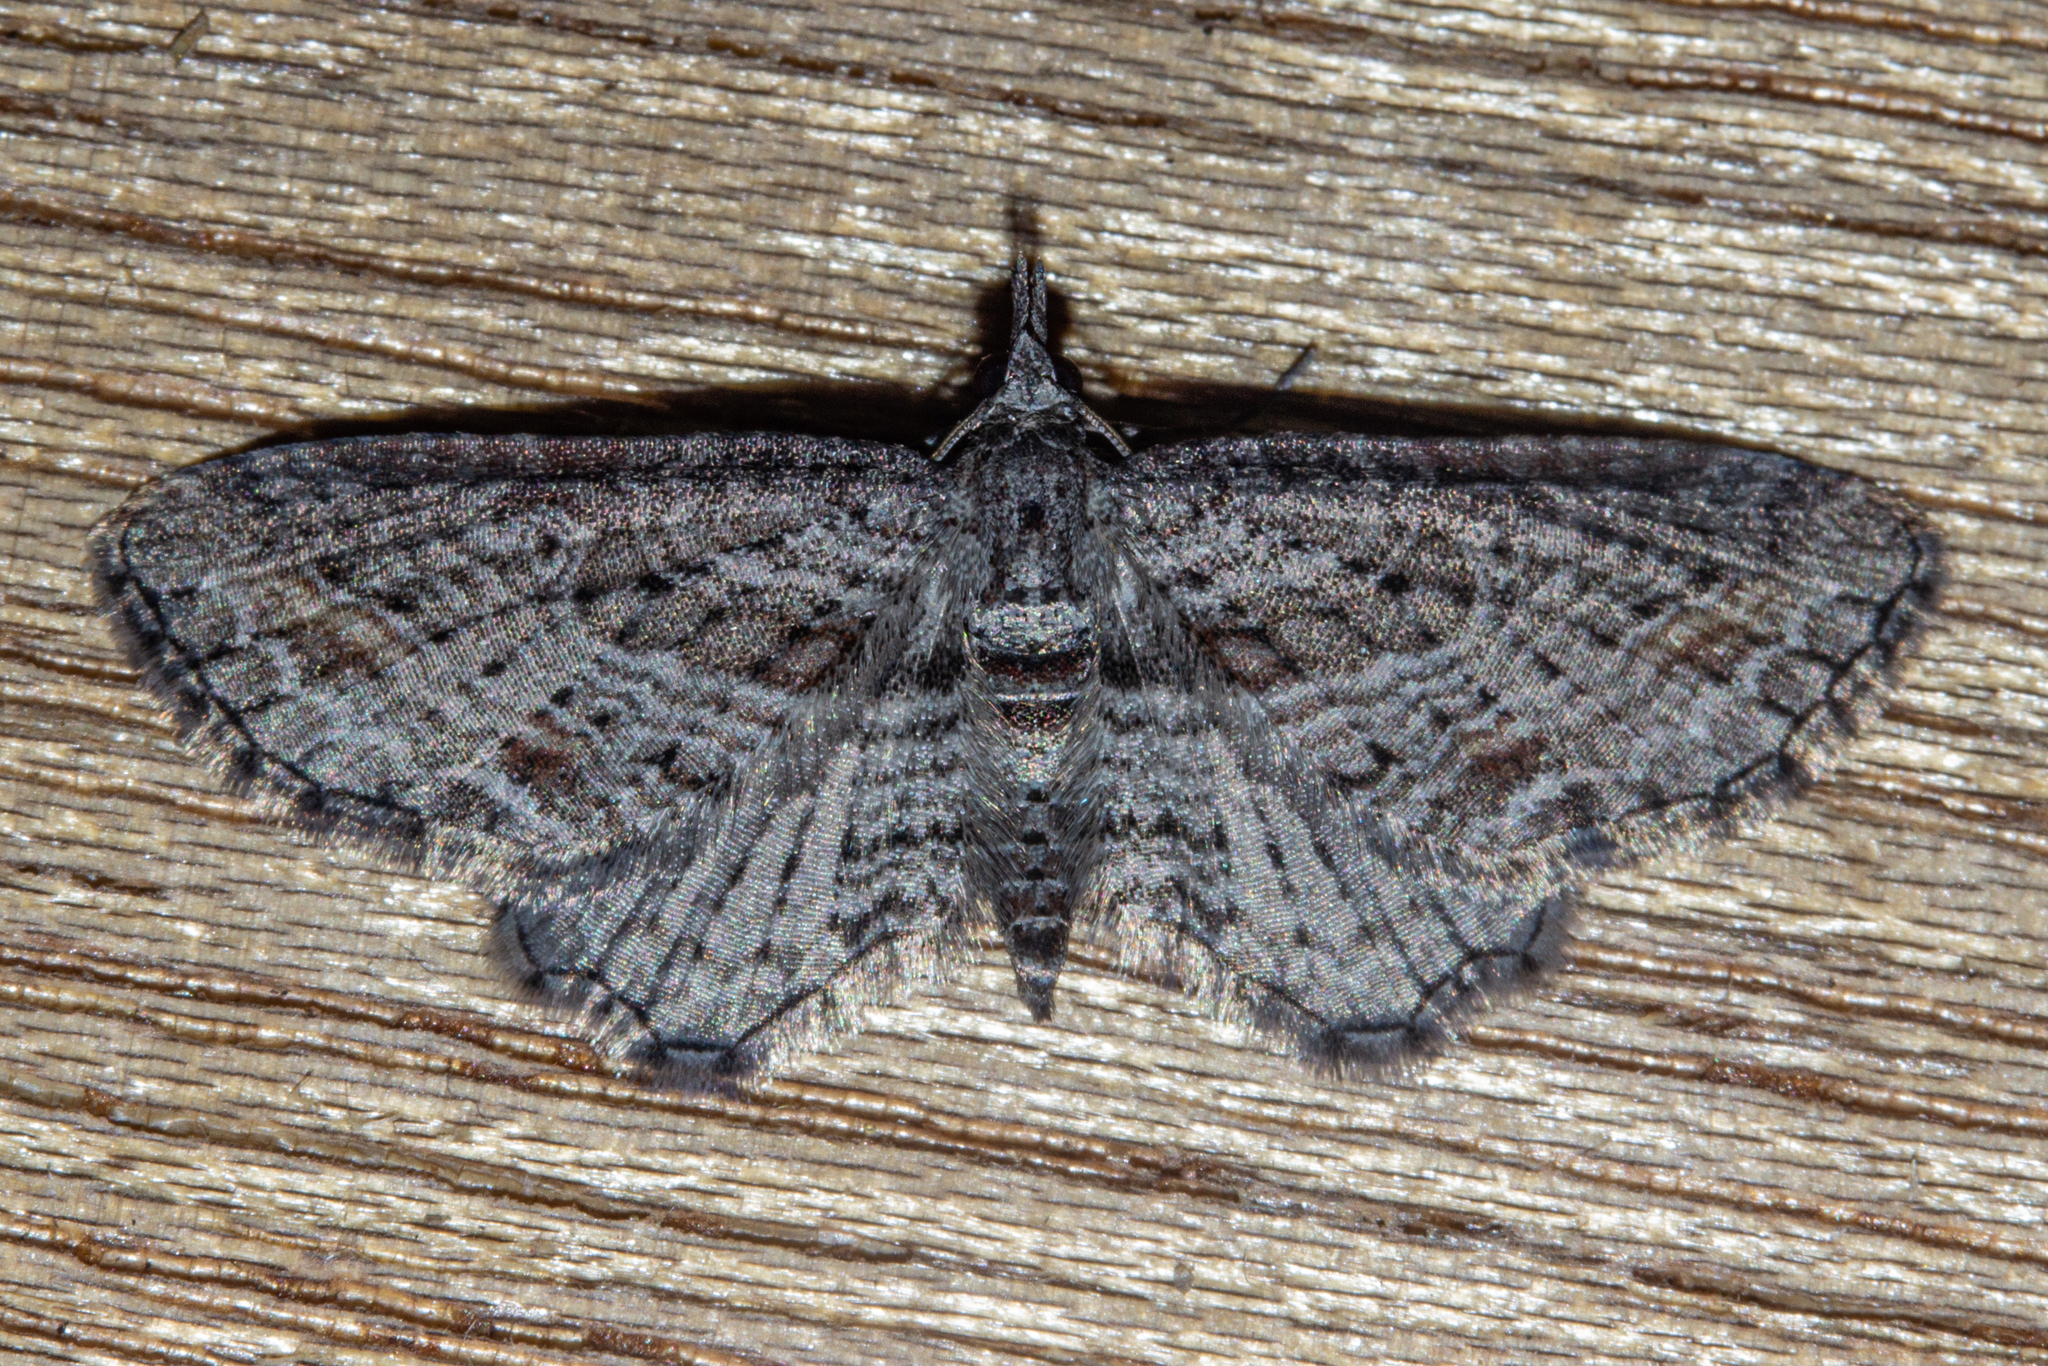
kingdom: Animalia
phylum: Arthropoda
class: Insecta
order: Lepidoptera
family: Geometridae
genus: Pasiphila
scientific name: Pasiphila humilis
